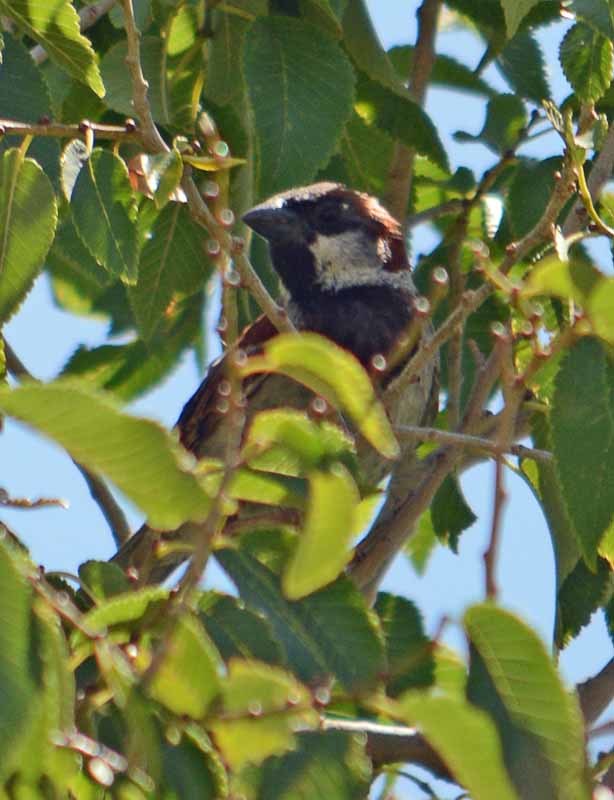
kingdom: Animalia
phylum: Chordata
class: Aves
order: Passeriformes
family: Passeridae
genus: Passer
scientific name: Passer domesticus
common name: House sparrow
